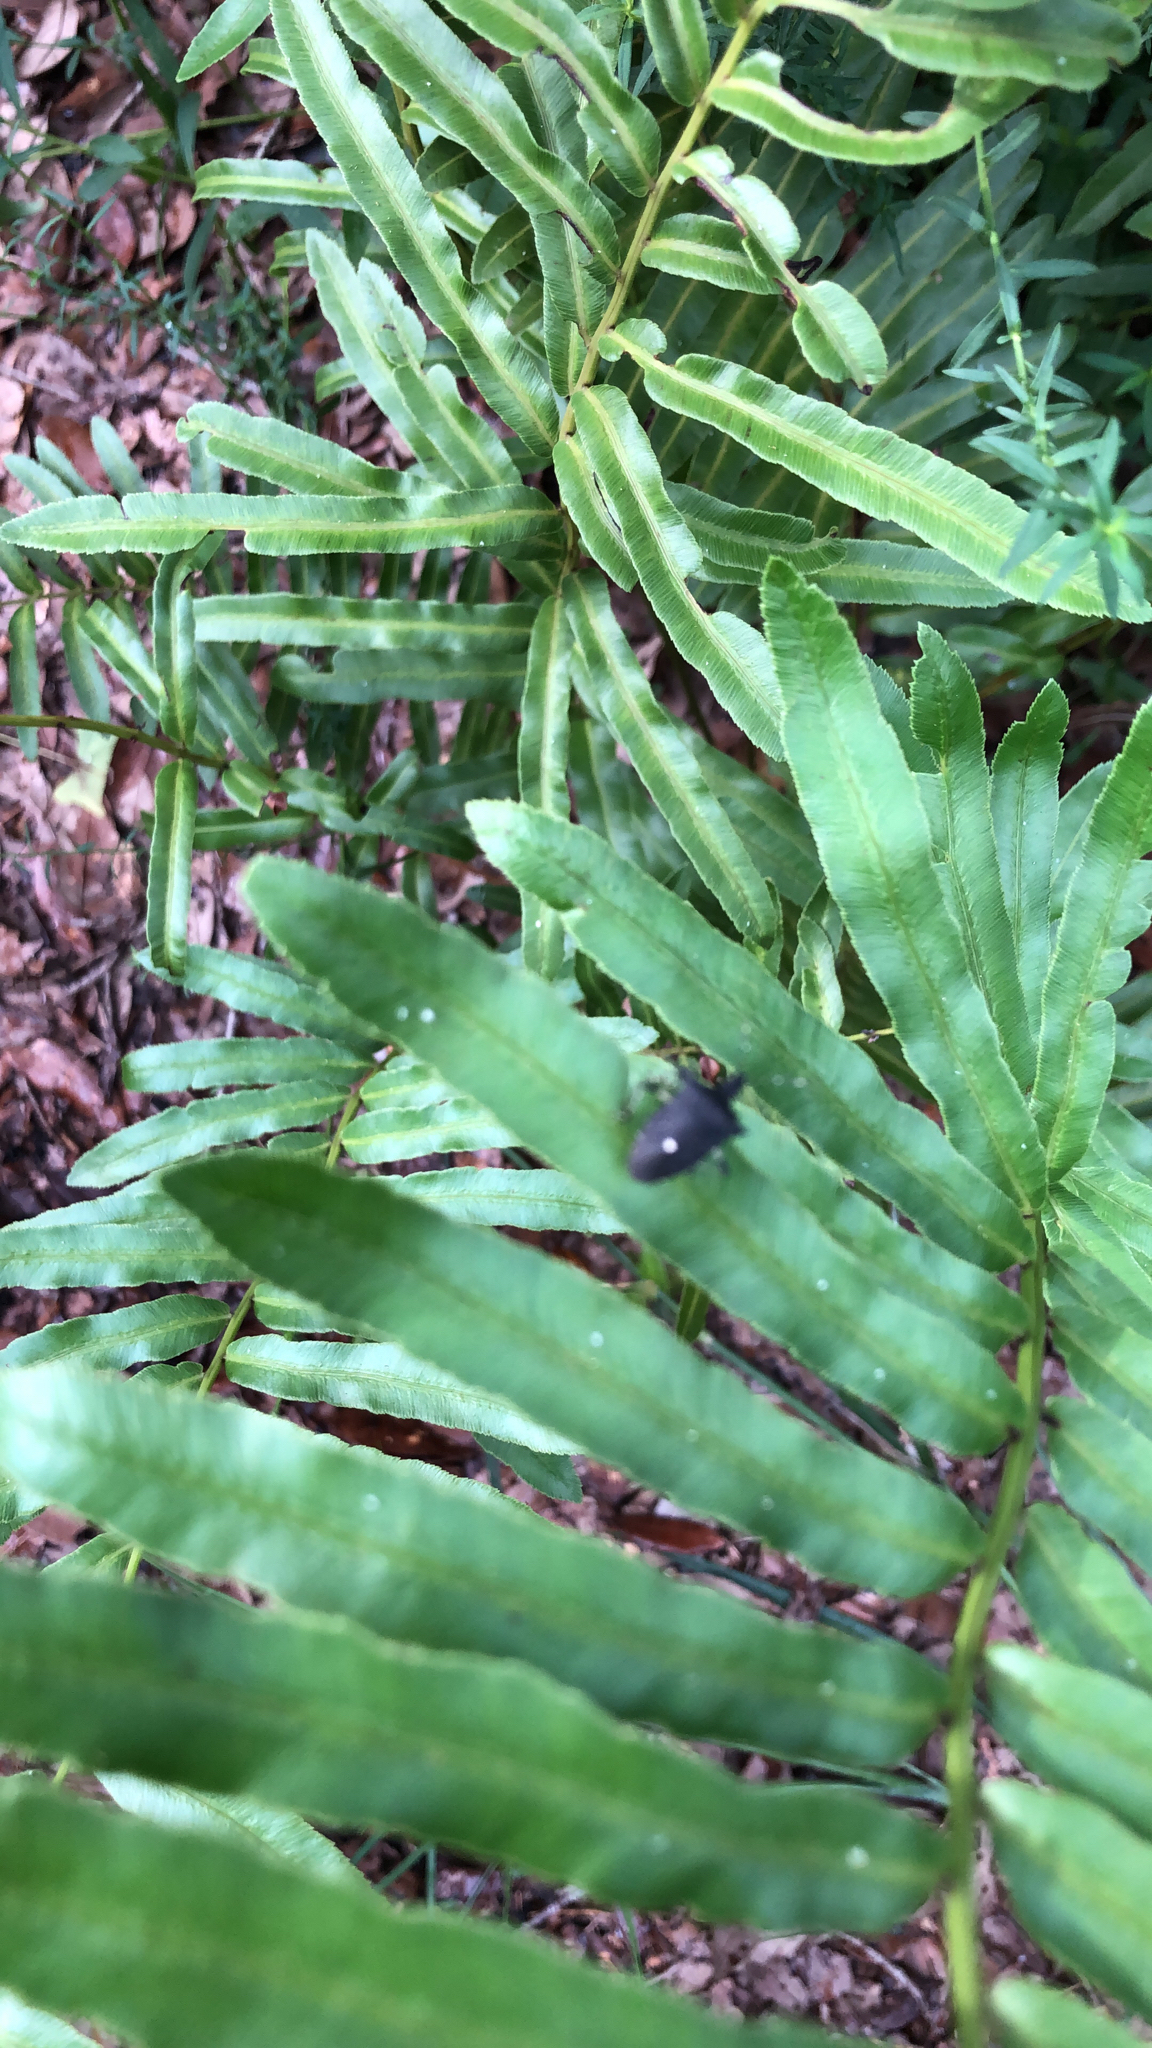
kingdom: Animalia
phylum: Arthropoda
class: Insecta
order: Hemiptera
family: Pentatomidae
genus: Proxys
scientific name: Proxys punctulatus
